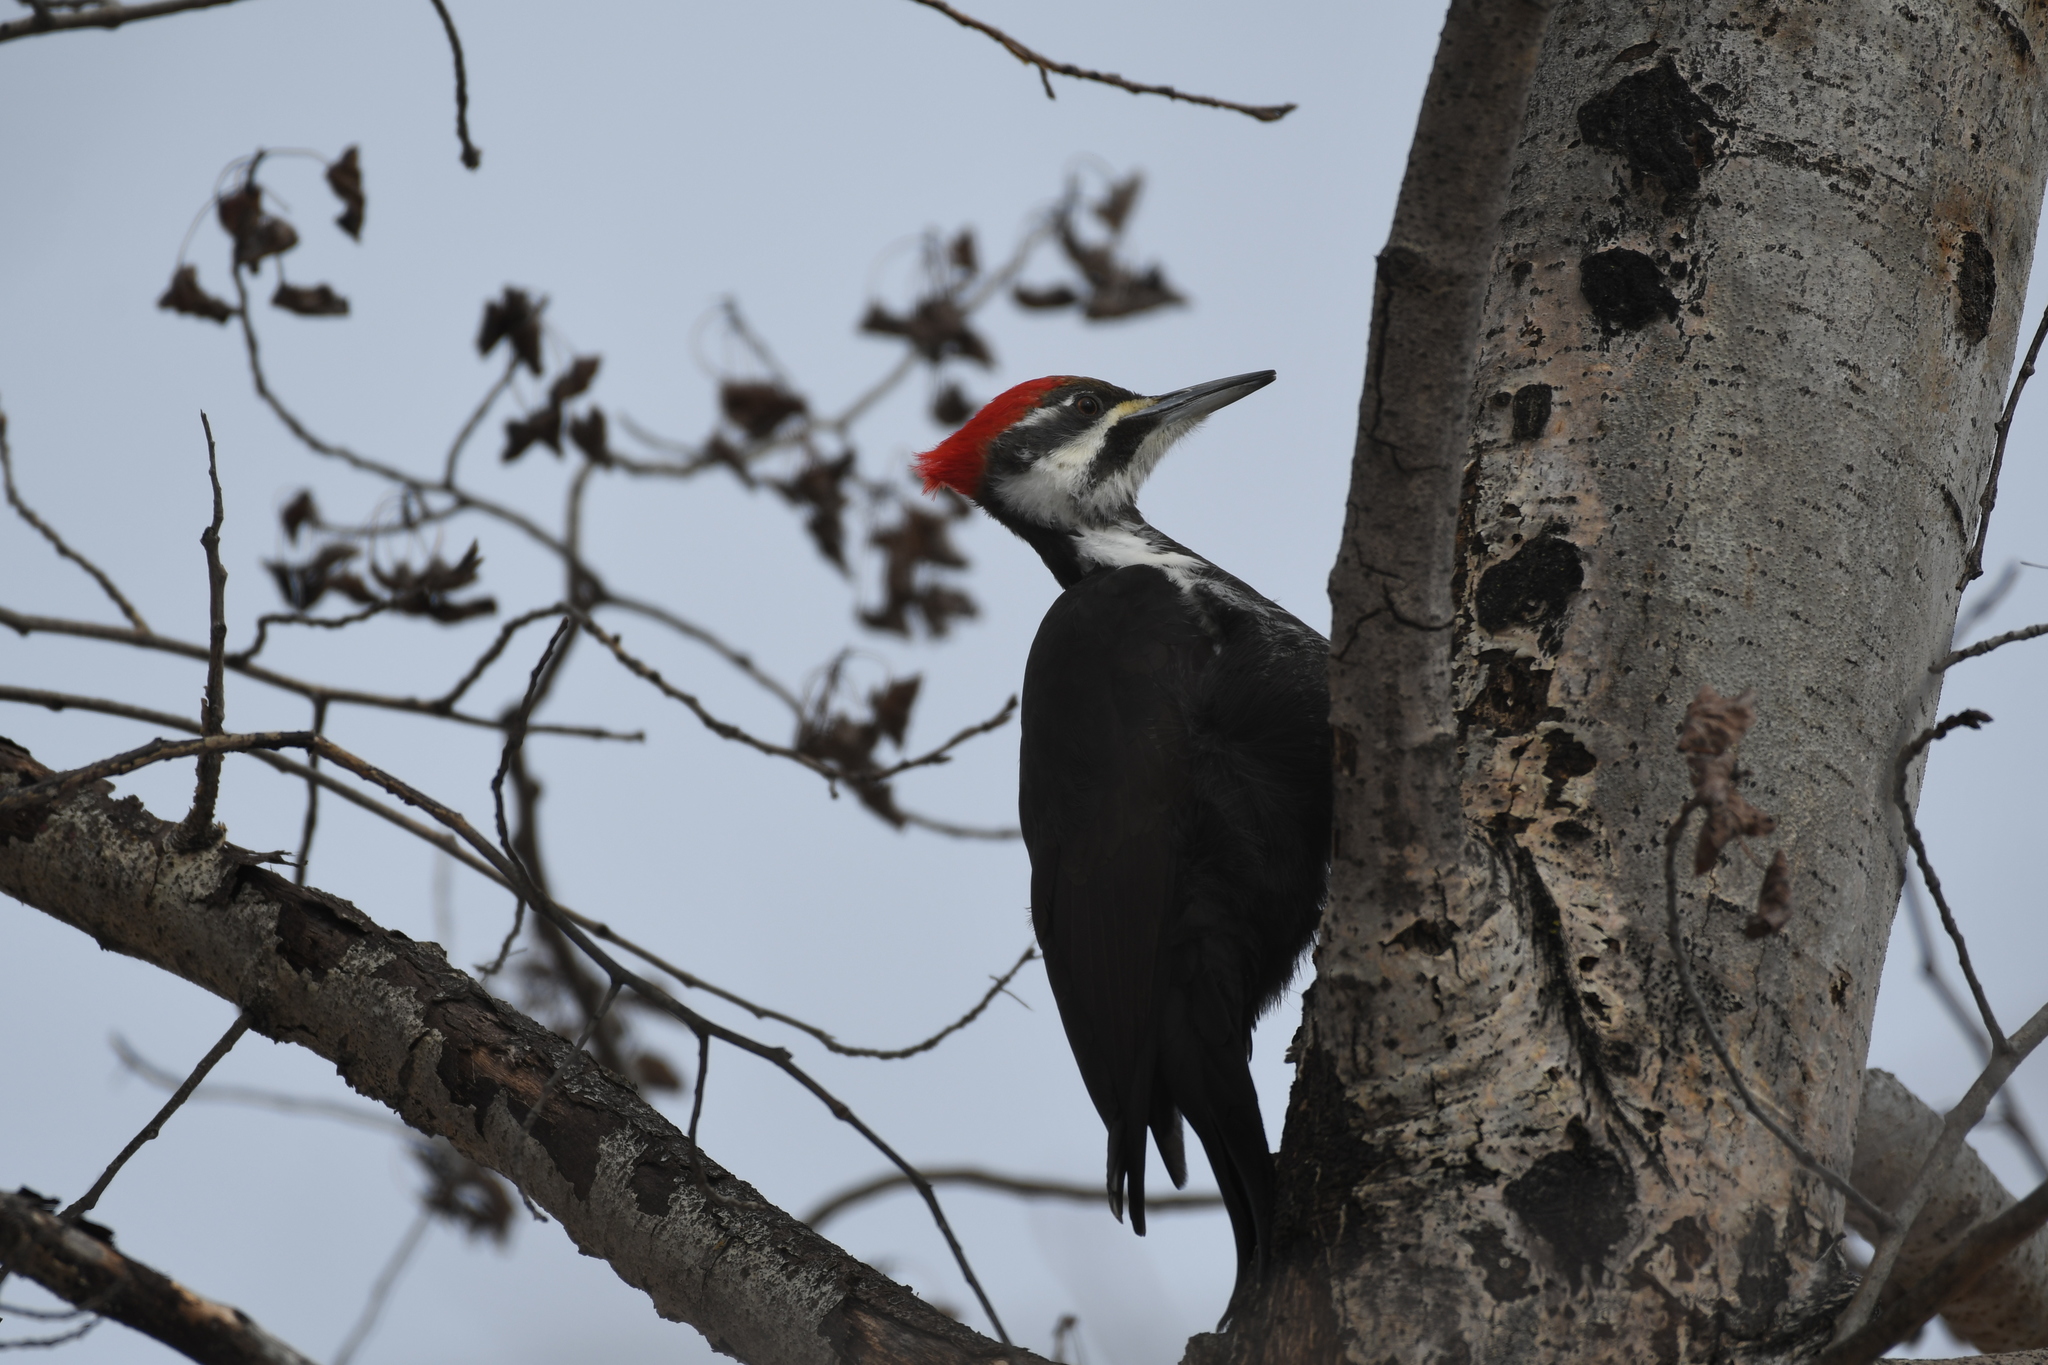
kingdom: Animalia
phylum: Chordata
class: Aves
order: Piciformes
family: Picidae
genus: Dryocopus
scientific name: Dryocopus pileatus
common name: Pileated woodpecker
